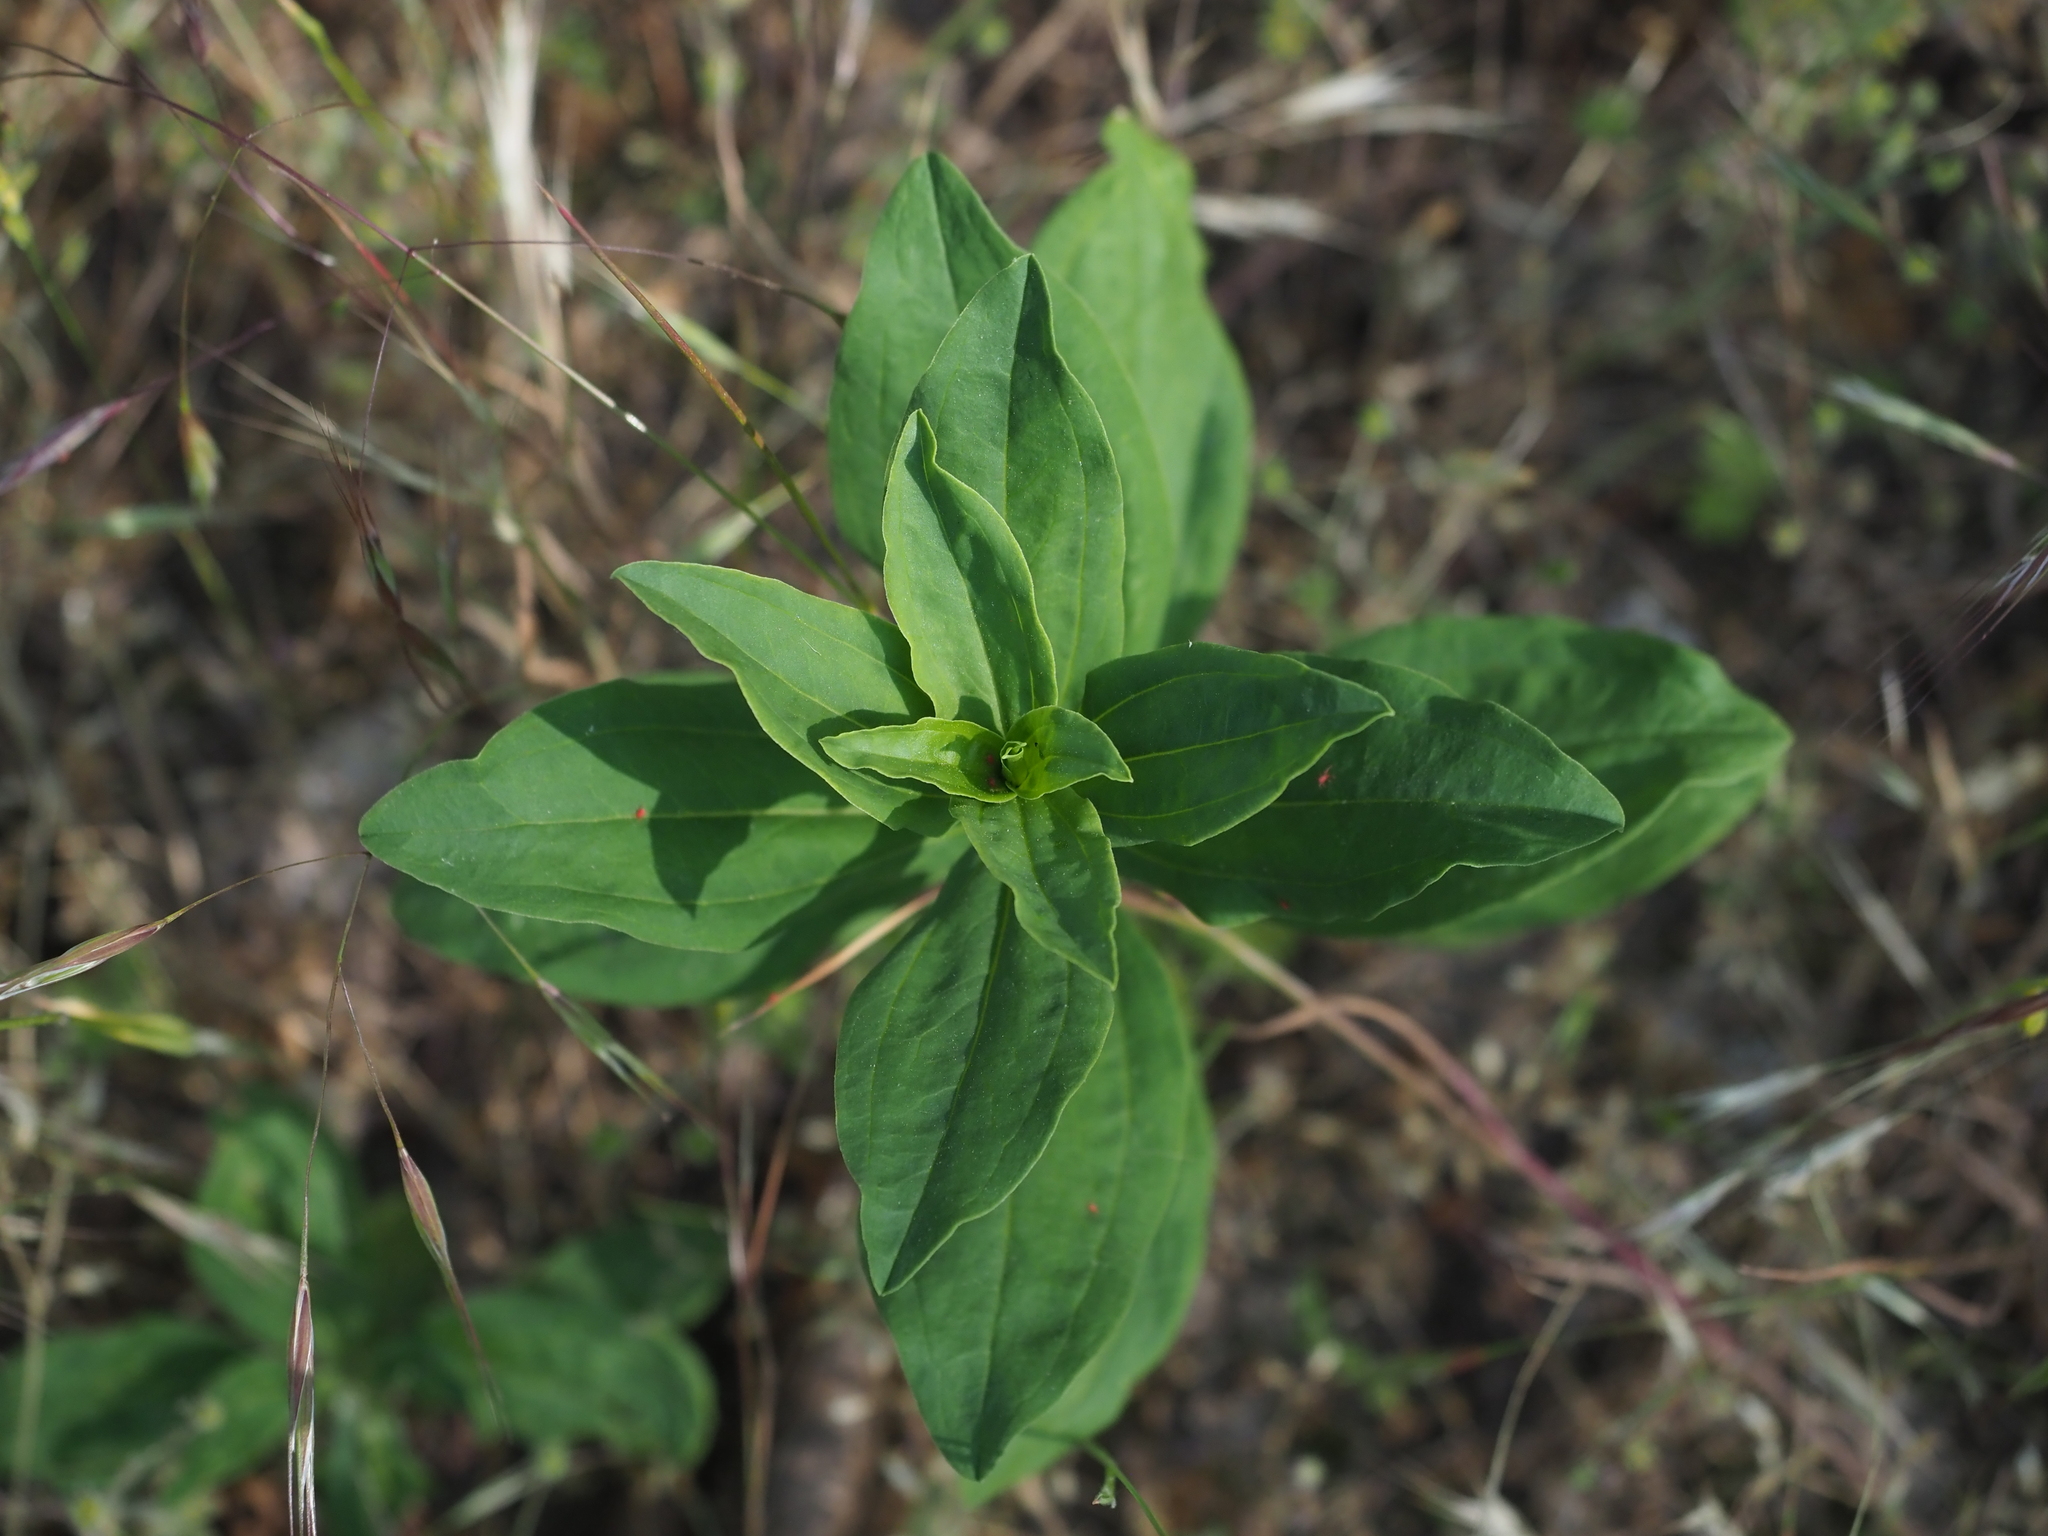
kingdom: Plantae
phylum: Tracheophyta
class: Magnoliopsida
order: Caryophyllales
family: Caryophyllaceae
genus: Saponaria
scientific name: Saponaria officinalis
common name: Soapwort
